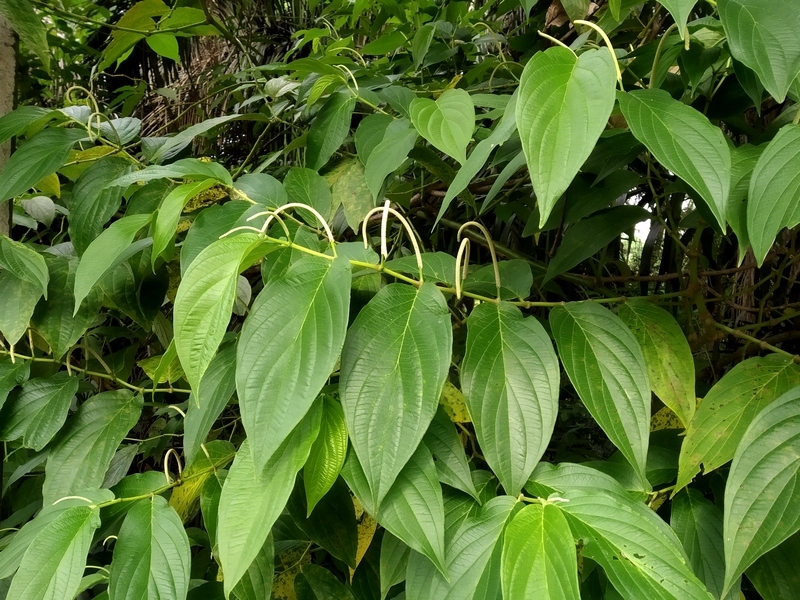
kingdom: Plantae
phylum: Tracheophyta
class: Magnoliopsida
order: Piperales
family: Piperaceae
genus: Piper
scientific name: Piper aduncum
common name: Spiked pepper
